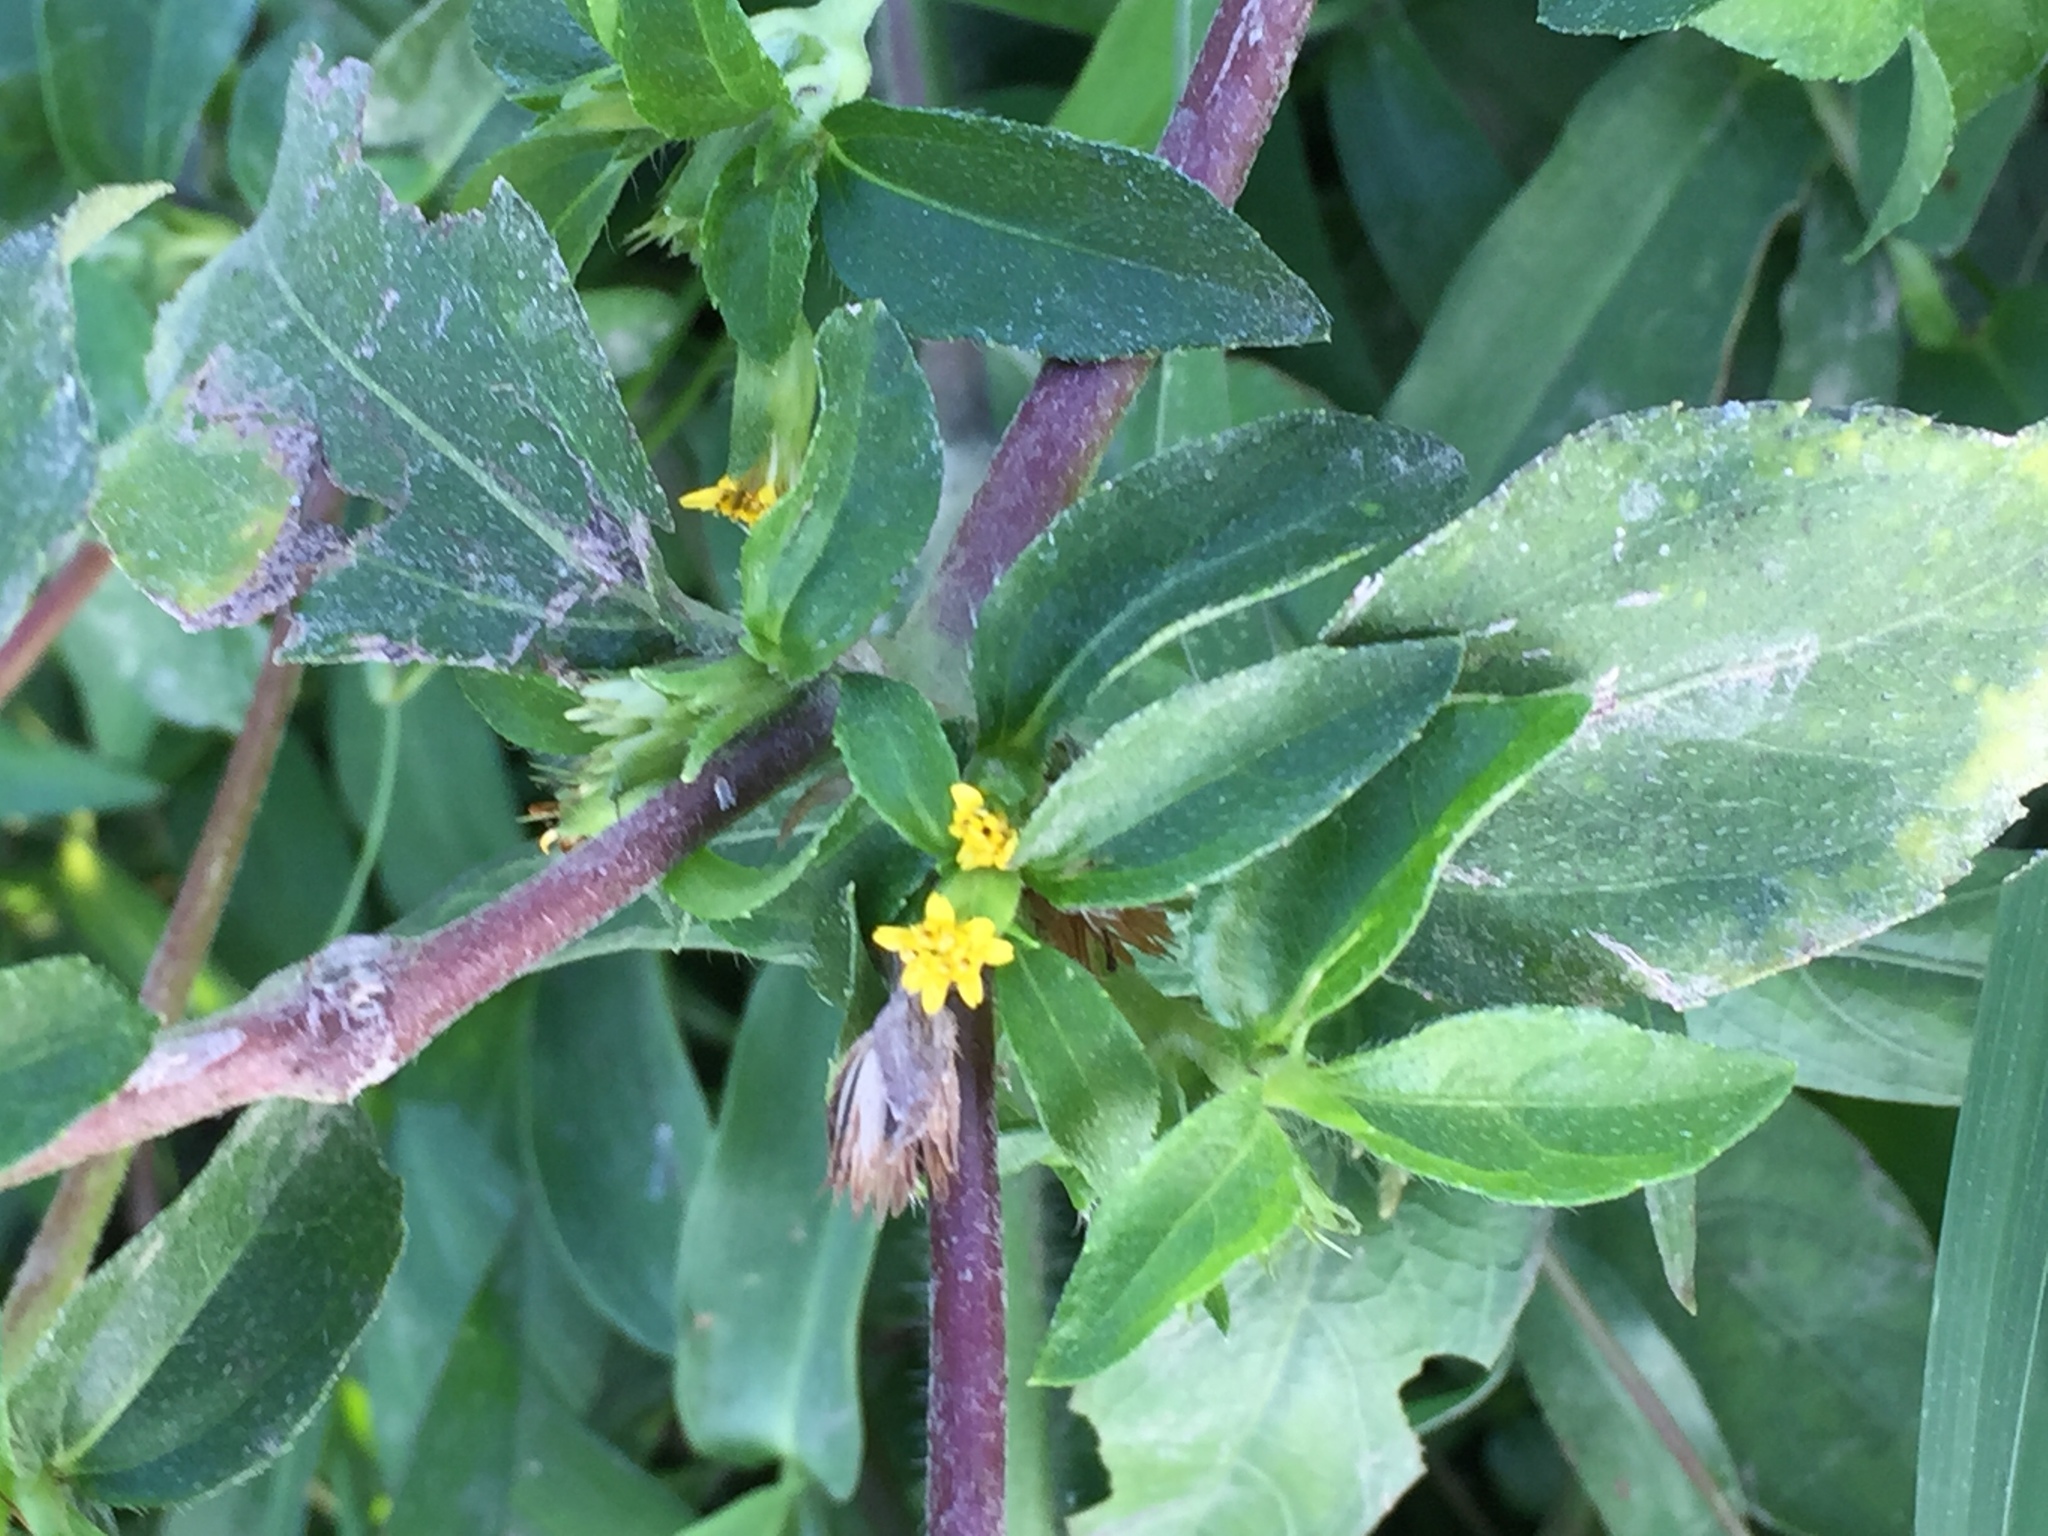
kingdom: Plantae
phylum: Tracheophyta
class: Magnoliopsida
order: Asterales
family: Asteraceae
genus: Synedrella
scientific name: Synedrella nodiflora
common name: Nodeweed
